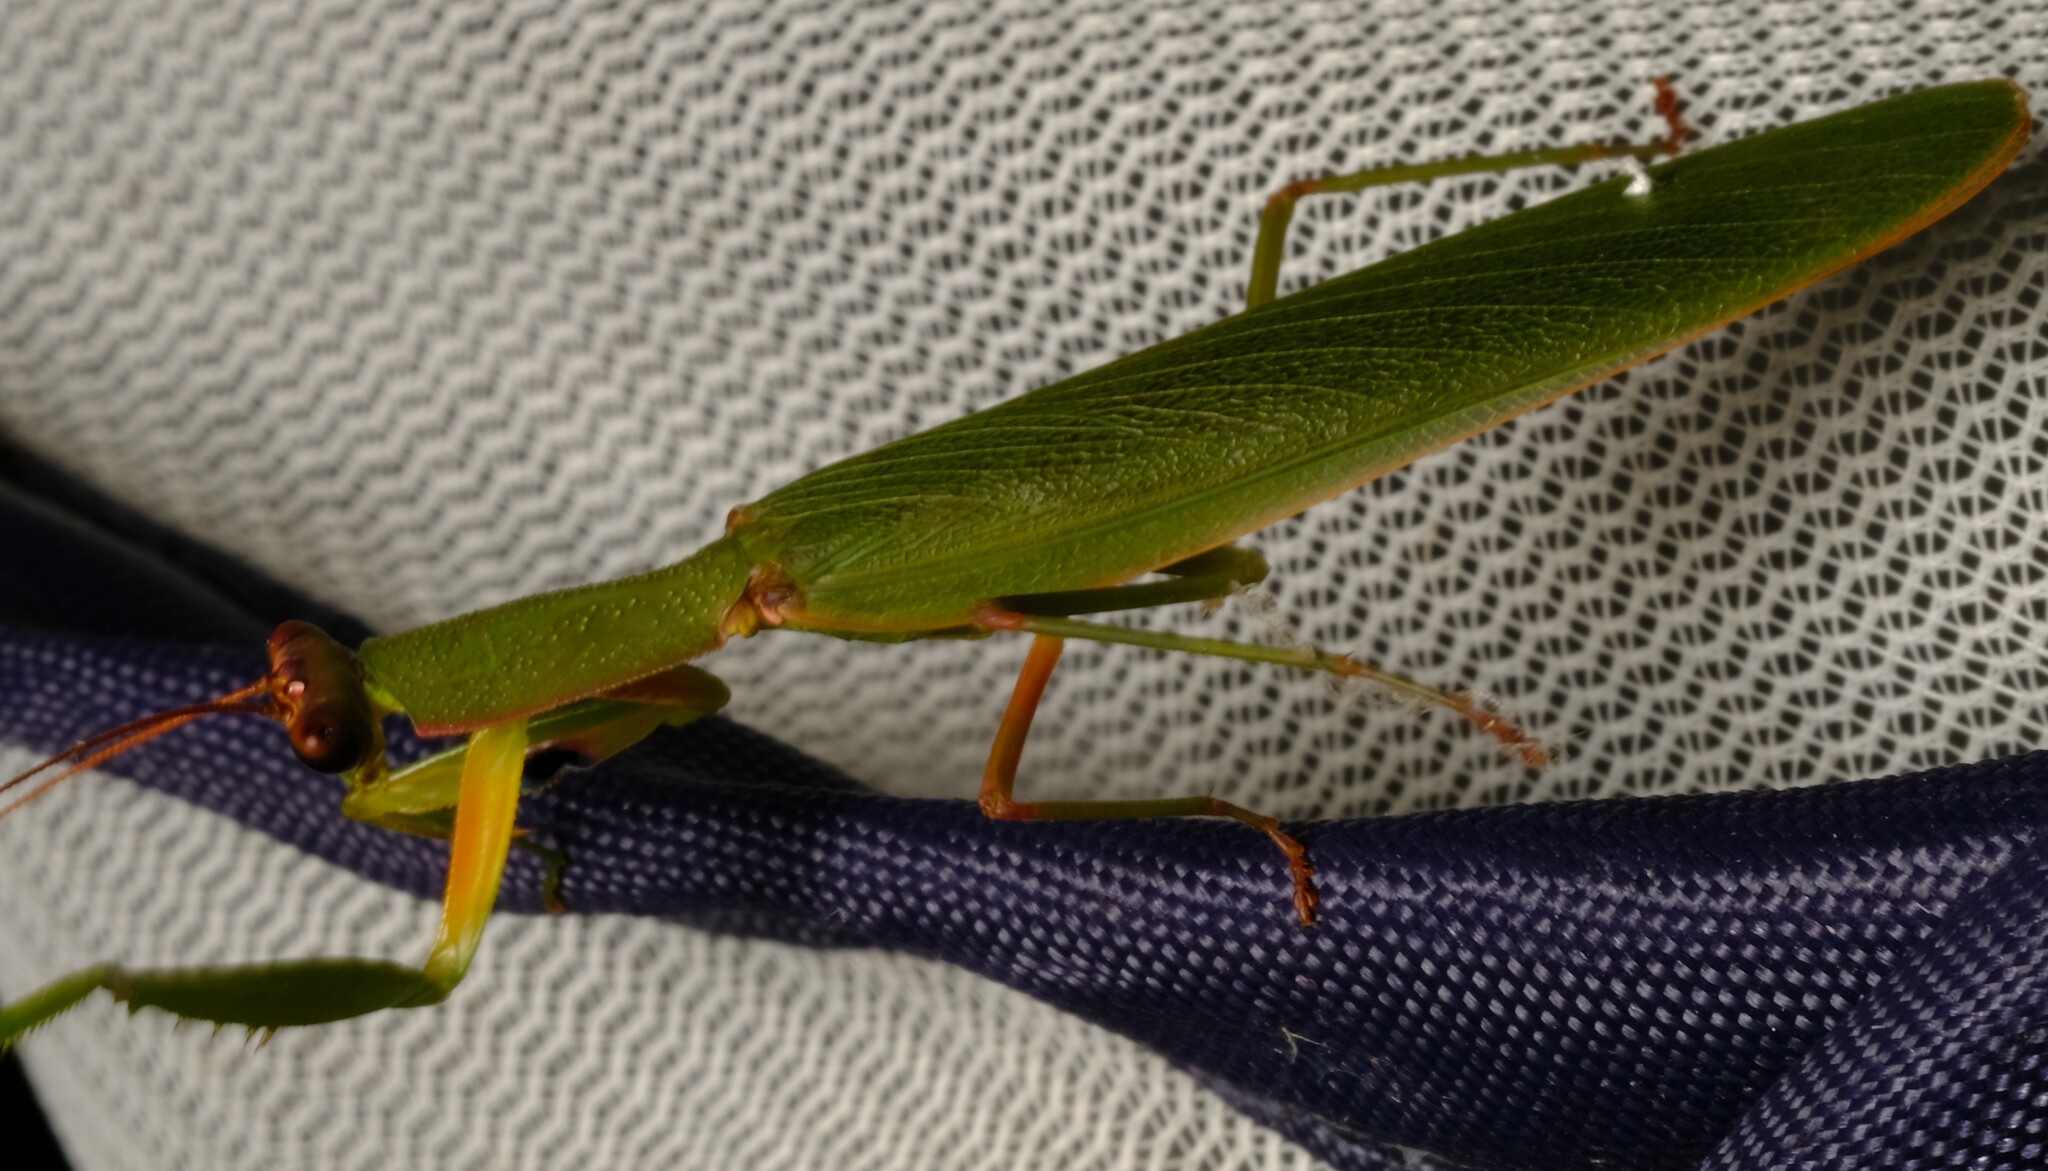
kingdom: Animalia
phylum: Arthropoda
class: Insecta
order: Mantodea
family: Mantidae
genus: Orthodera
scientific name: Orthodera ministralis
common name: Mantis
